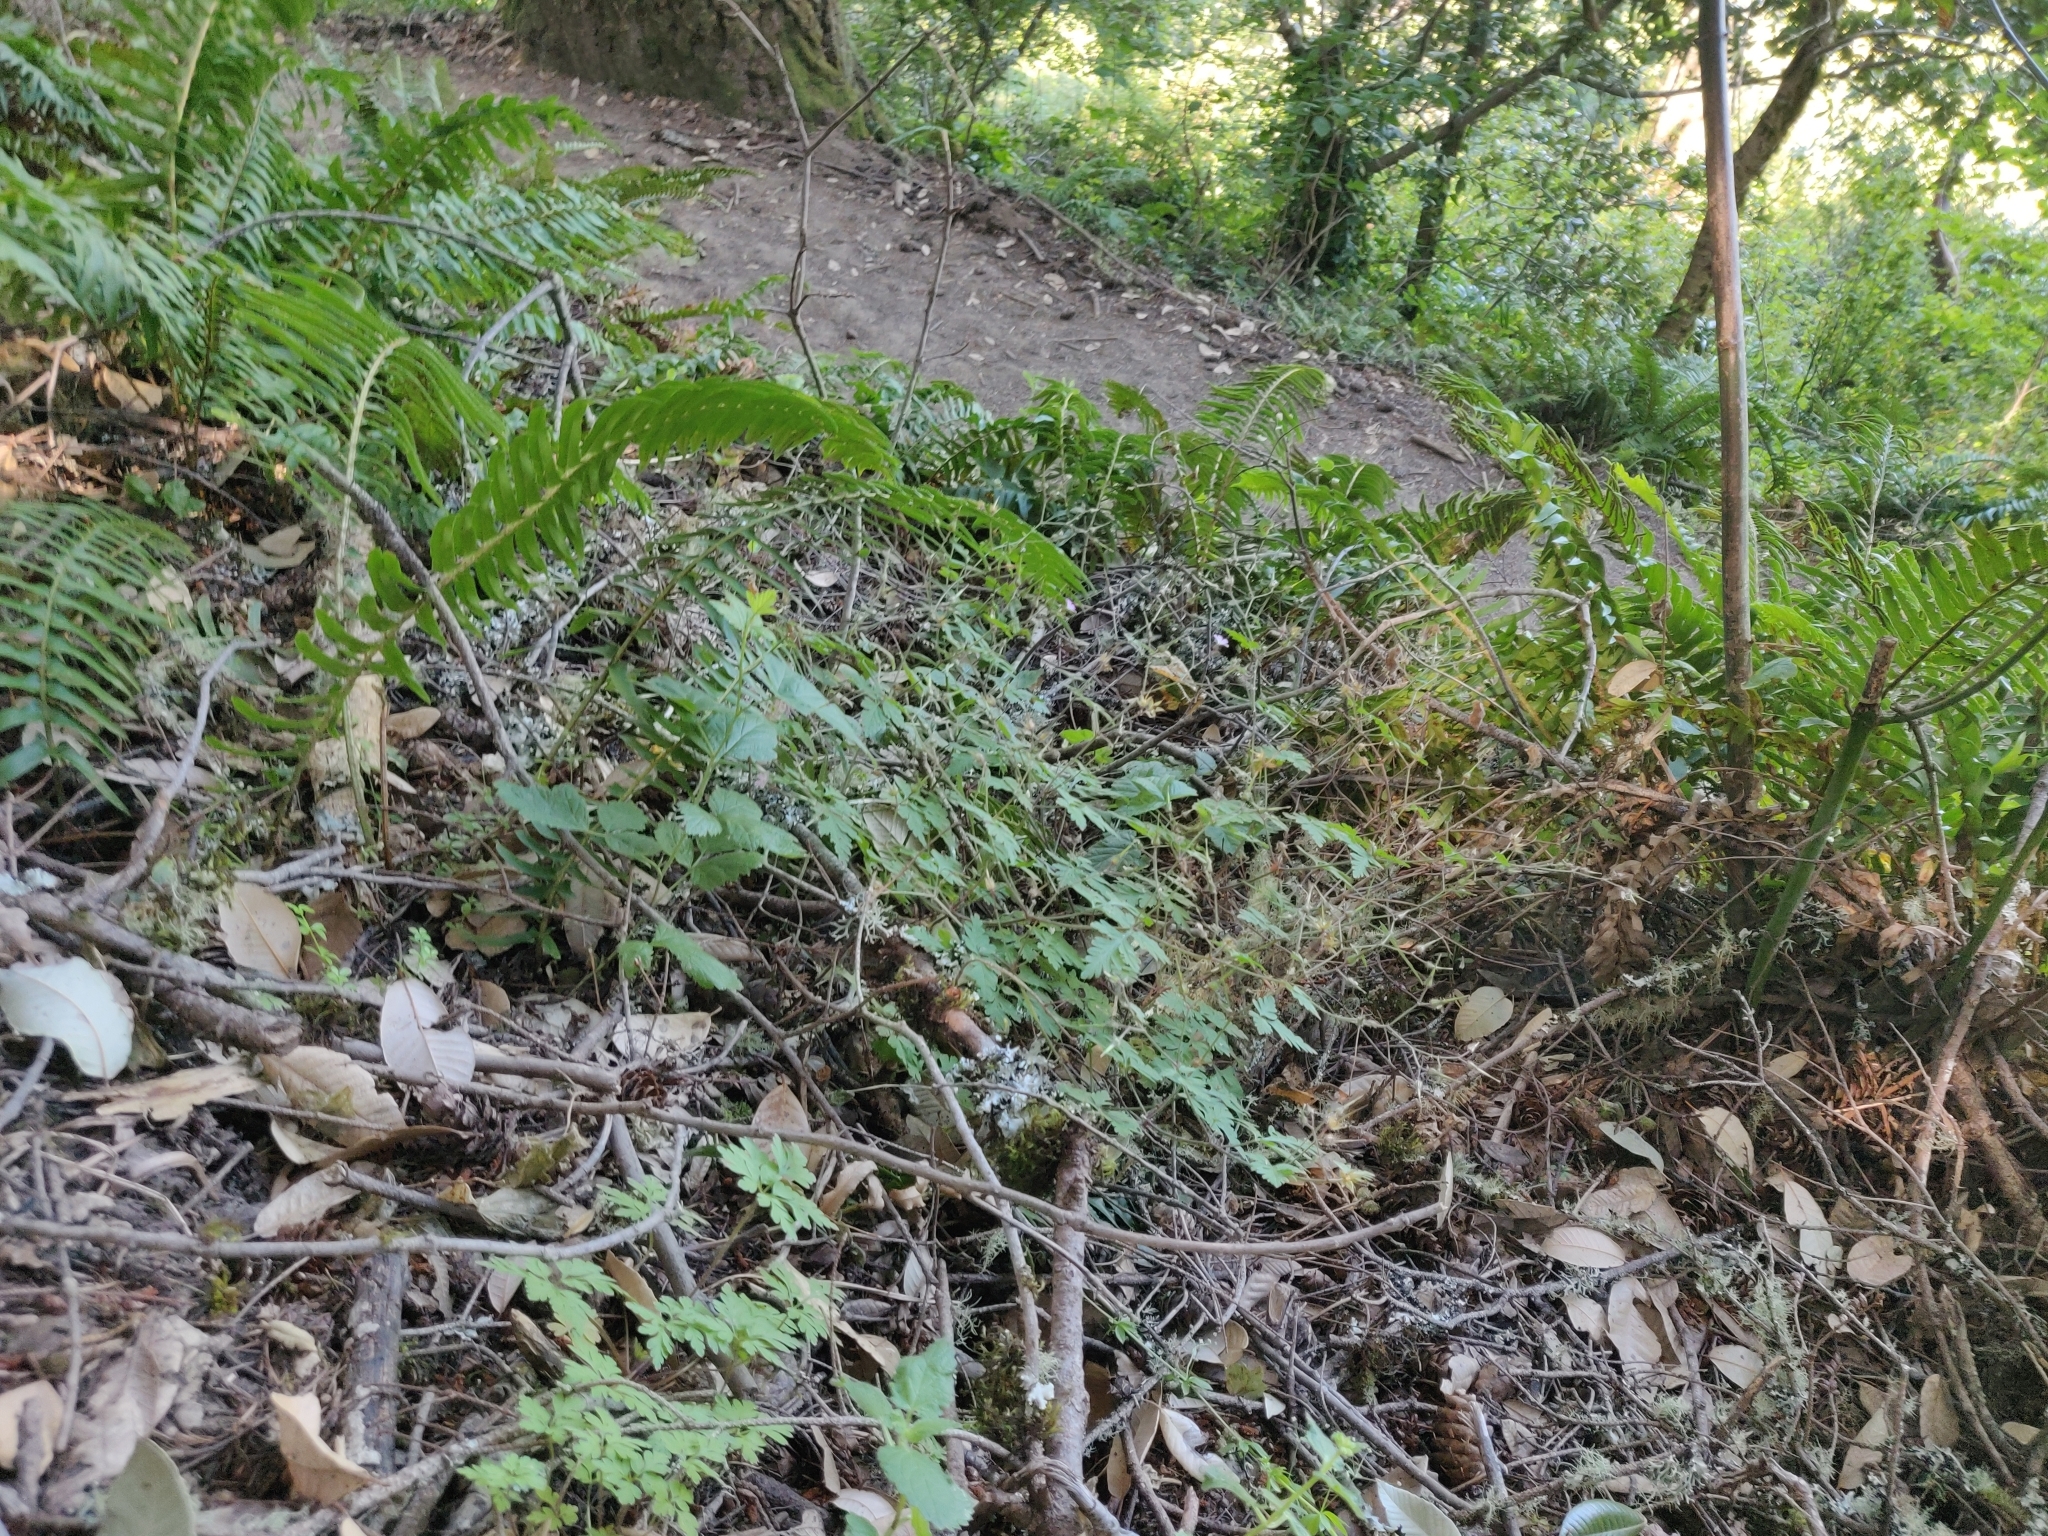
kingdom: Plantae
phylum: Tracheophyta
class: Magnoliopsida
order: Geraniales
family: Geraniaceae
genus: Geranium
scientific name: Geranium robertianum
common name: Herb-robert
